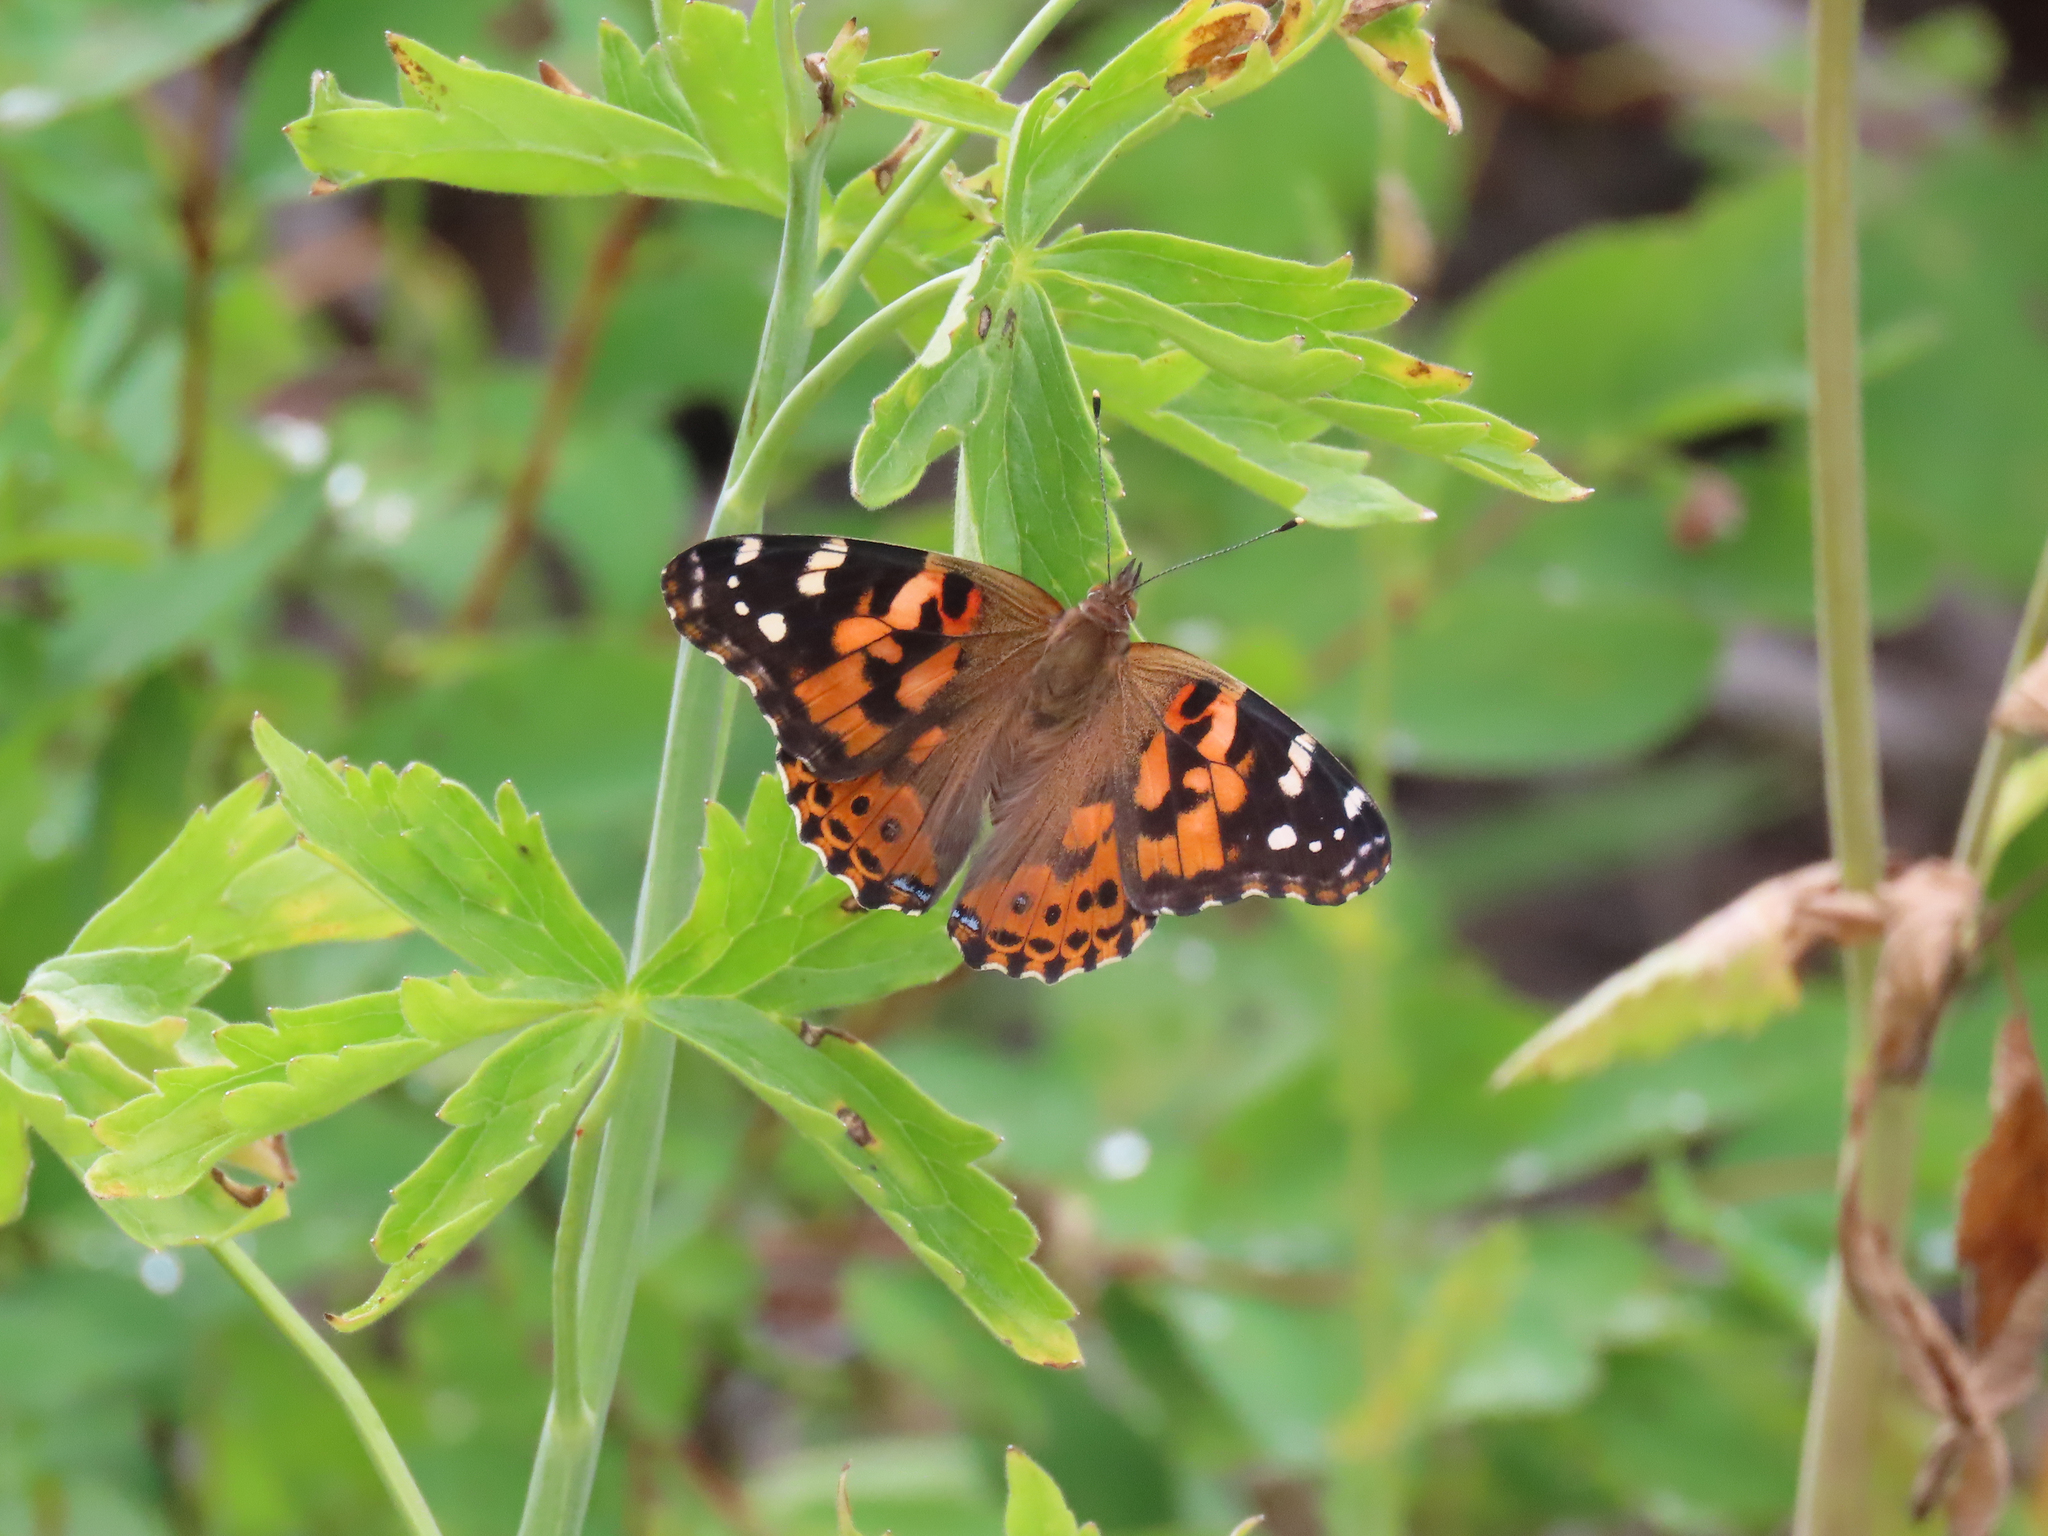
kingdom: Animalia
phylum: Arthropoda
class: Insecta
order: Lepidoptera
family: Nymphalidae
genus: Vanessa
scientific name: Vanessa cardui
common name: Painted lady
